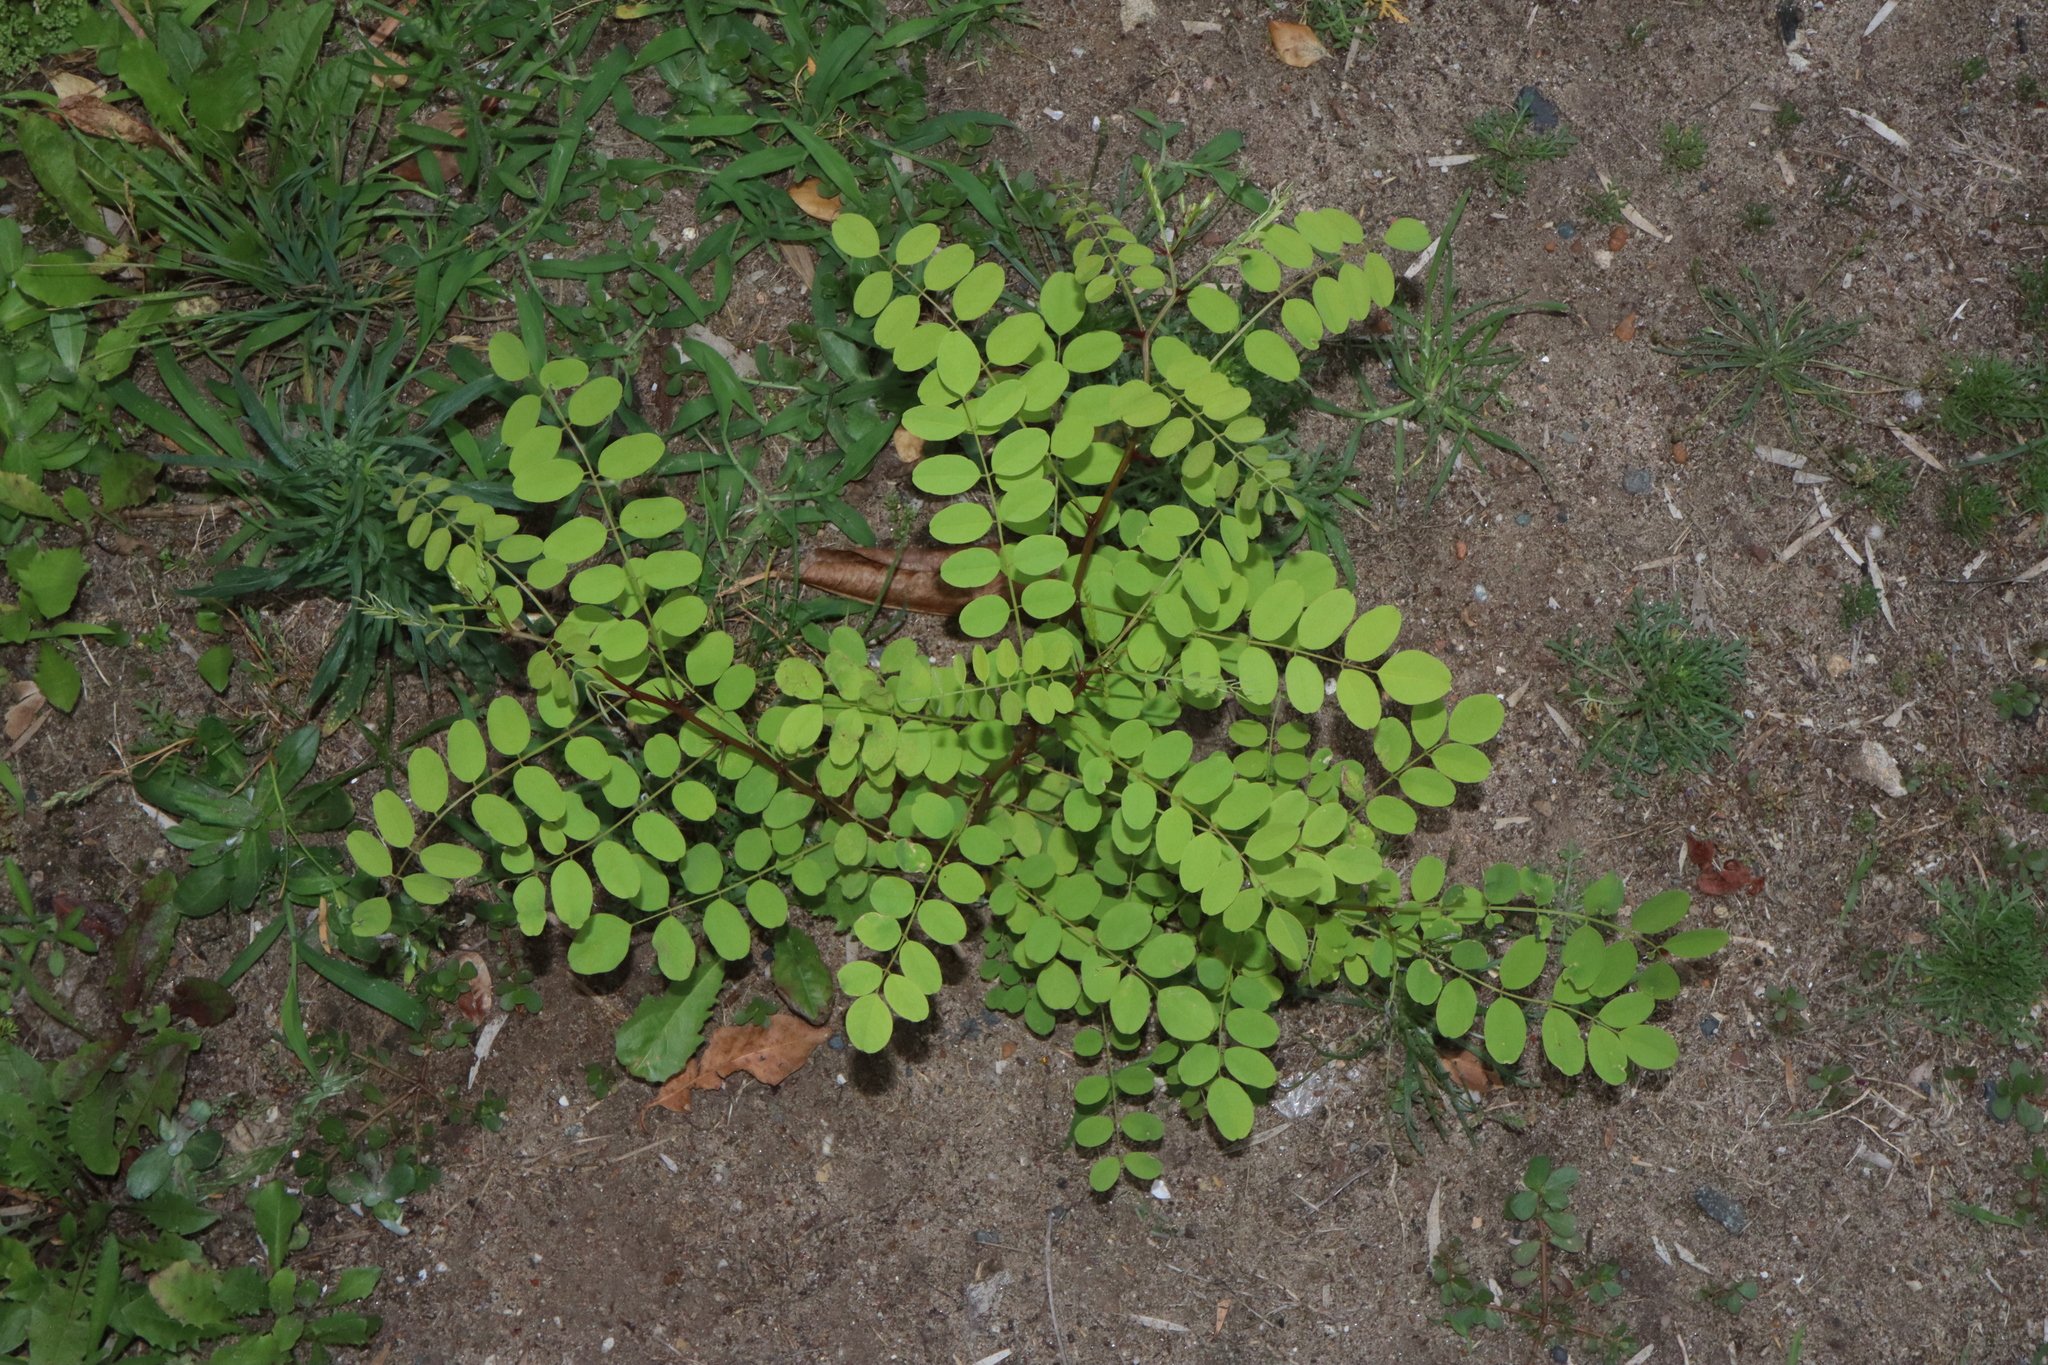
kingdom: Plantae
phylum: Tracheophyta
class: Magnoliopsida
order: Fabales
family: Fabaceae
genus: Robinia
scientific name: Robinia pseudoacacia
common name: Black locust
